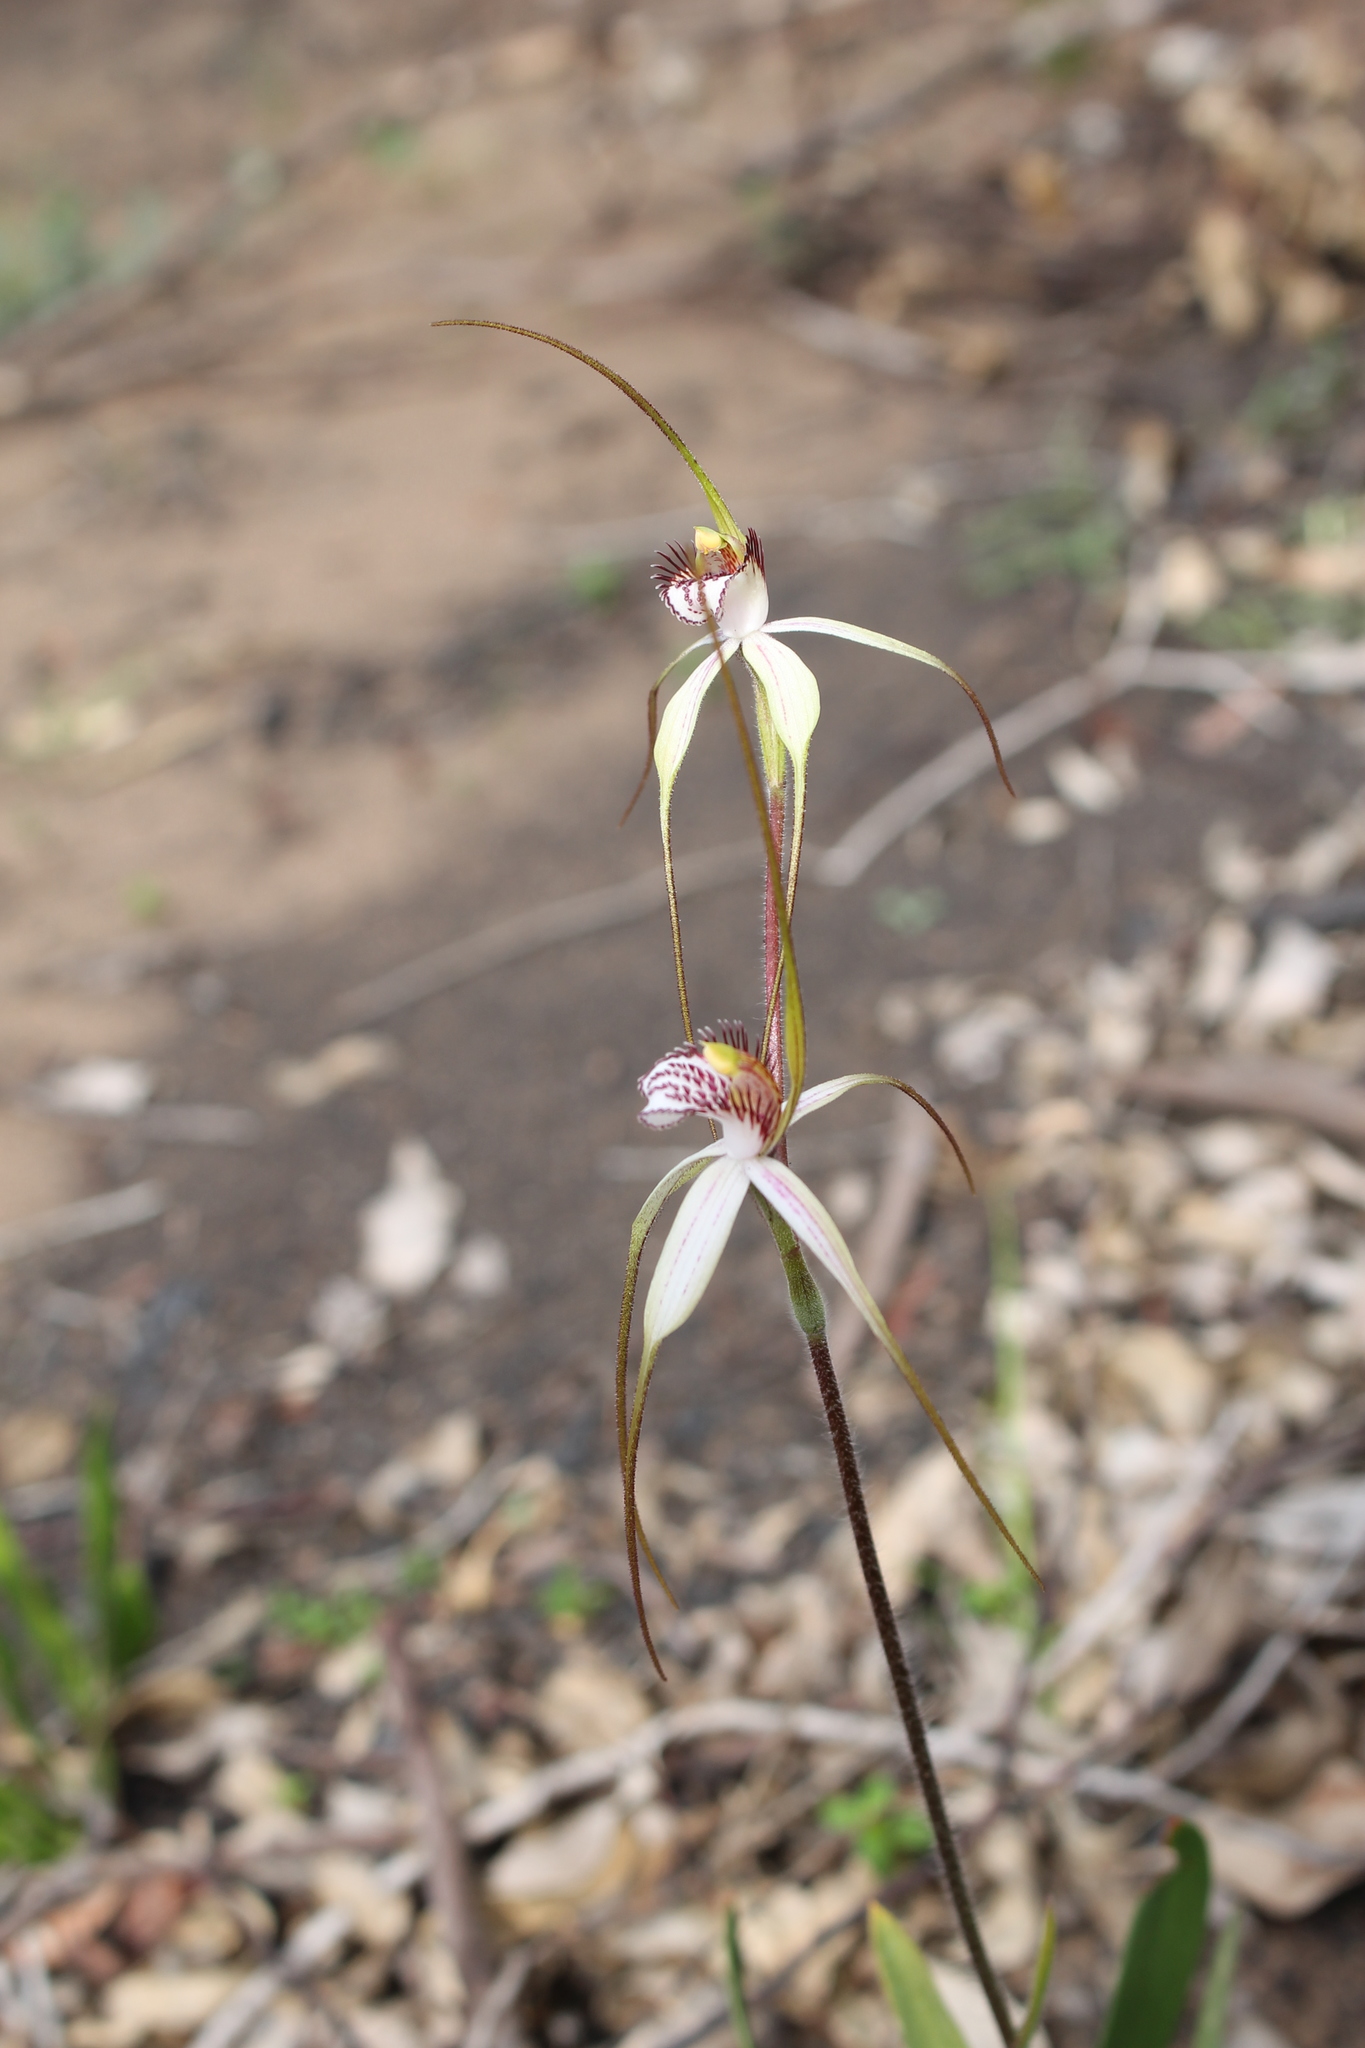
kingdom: Plantae
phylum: Tracheophyta
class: Liliopsida
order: Asparagales
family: Orchidaceae
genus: Caladenia
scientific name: Caladenia longicauda
